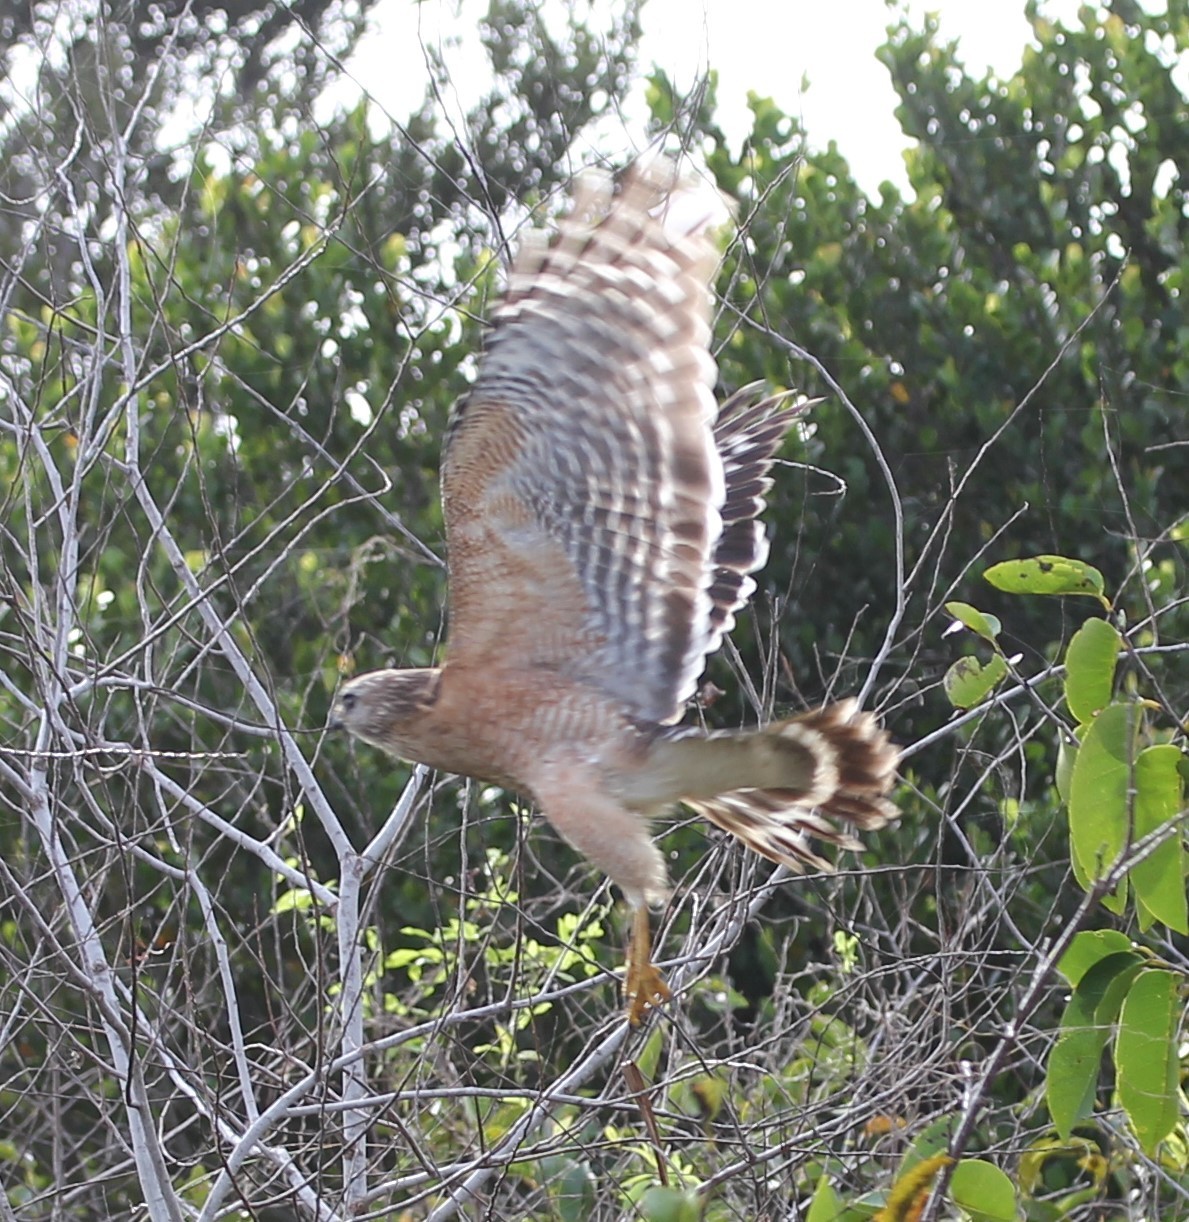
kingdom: Animalia
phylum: Chordata
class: Aves
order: Accipitriformes
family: Accipitridae
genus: Buteo
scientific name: Buteo lineatus
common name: Red-shouldered hawk
